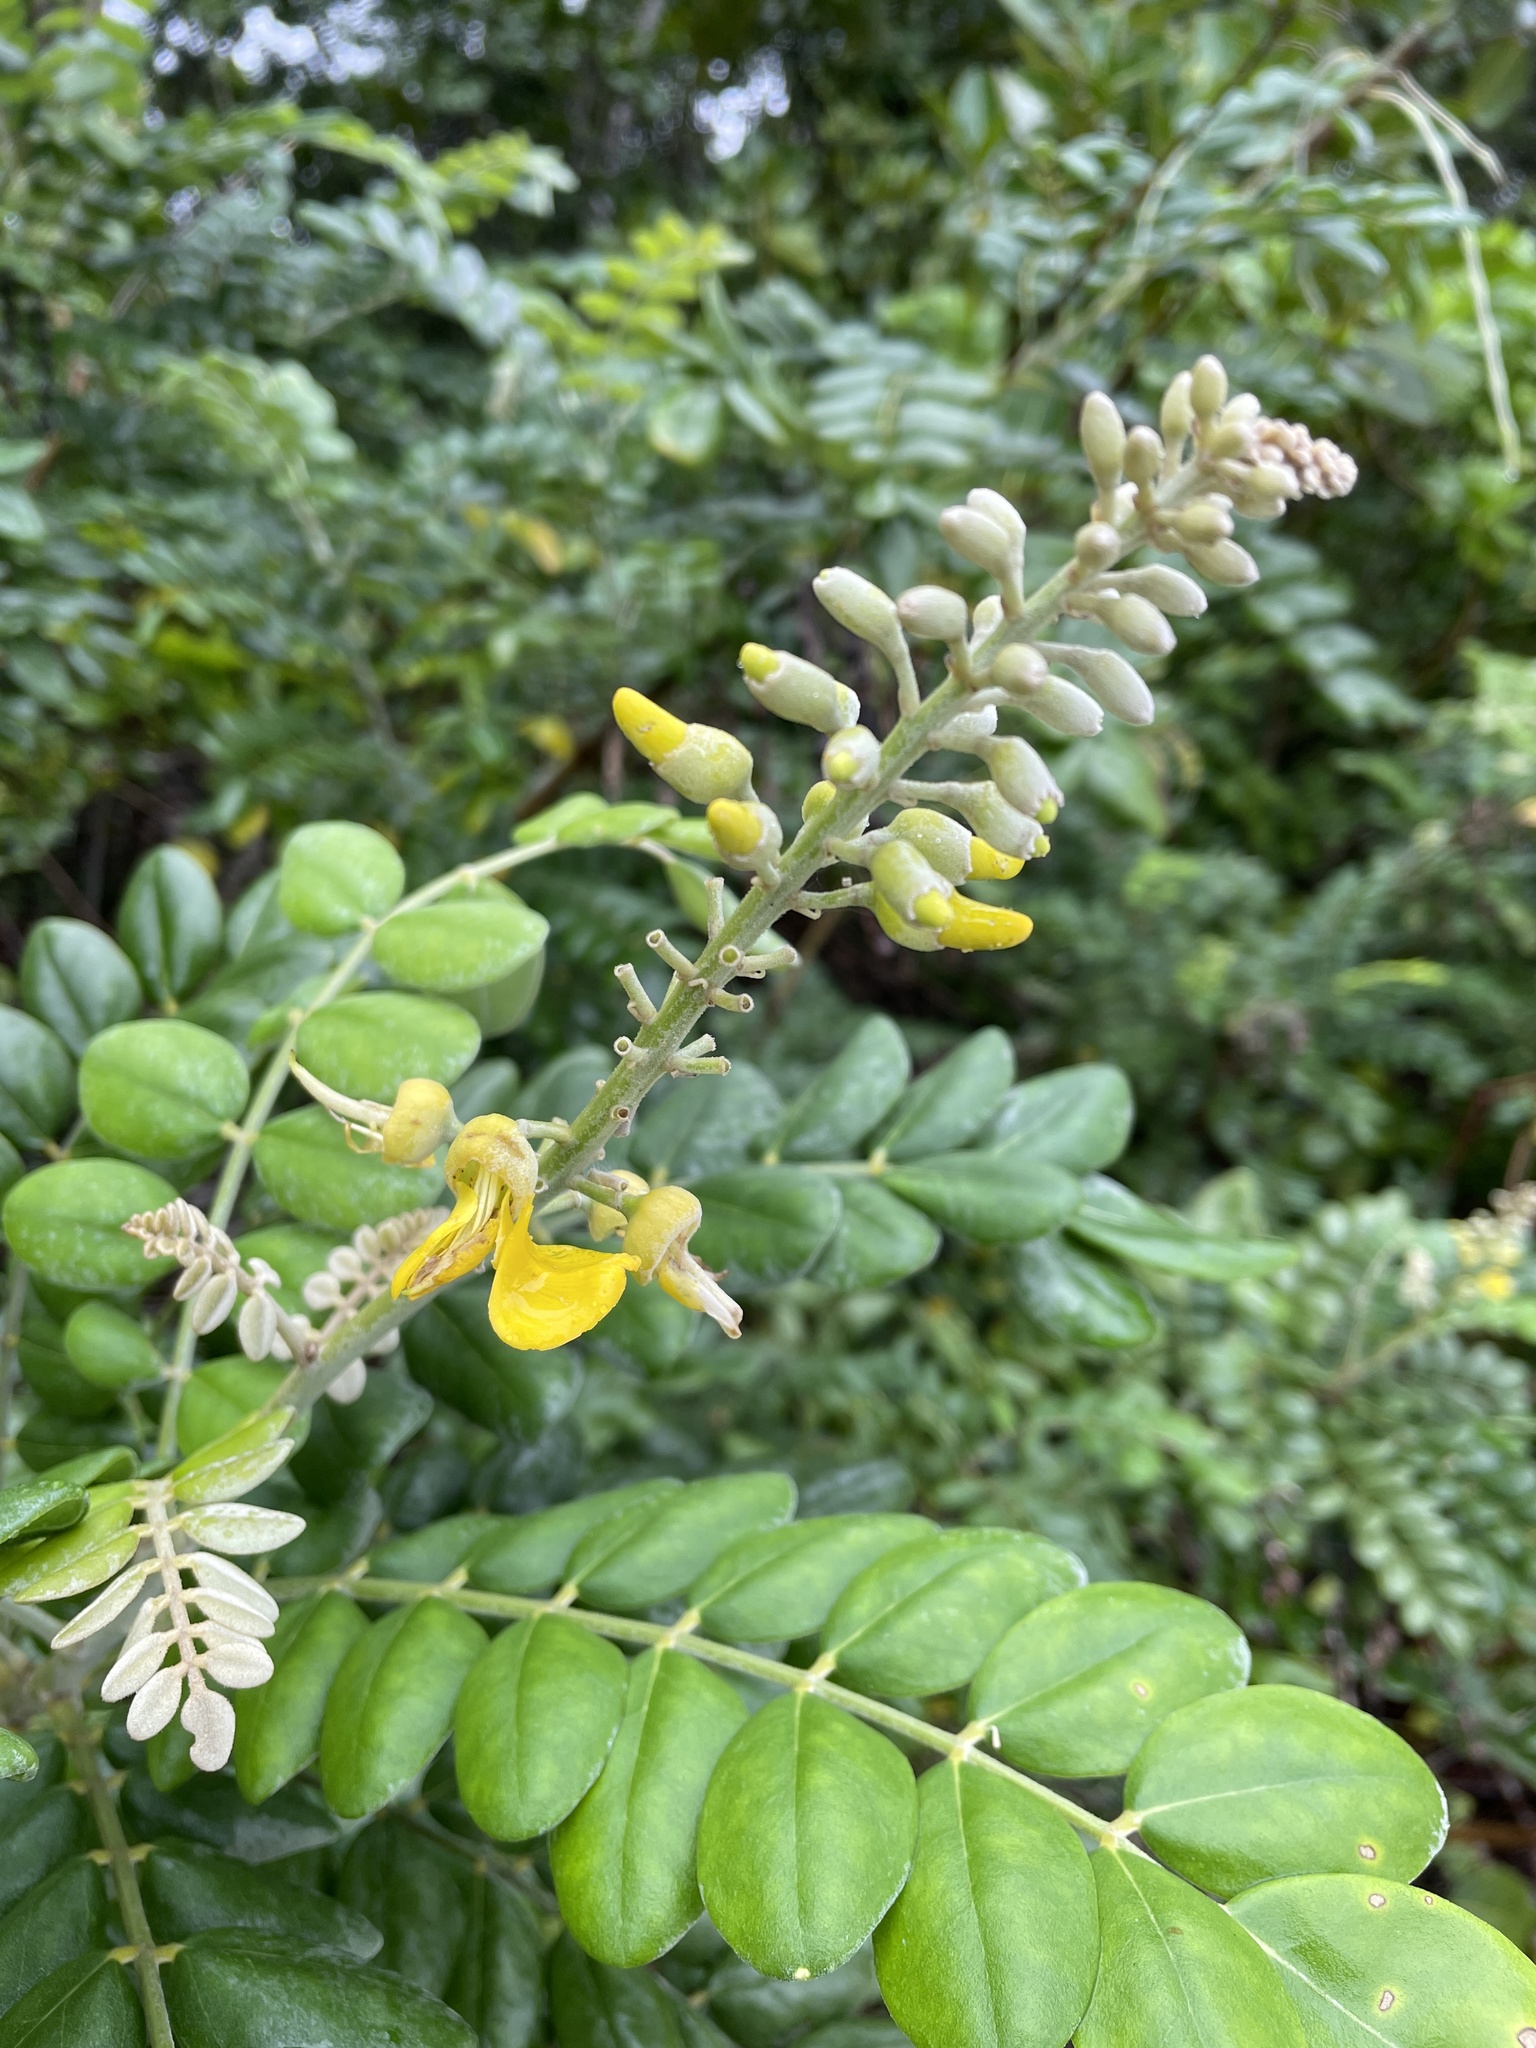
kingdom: Plantae
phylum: Tracheophyta
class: Magnoliopsida
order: Fabales
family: Fabaceae
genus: Sophora
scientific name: Sophora tomentosa
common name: Yellow necklacepod
